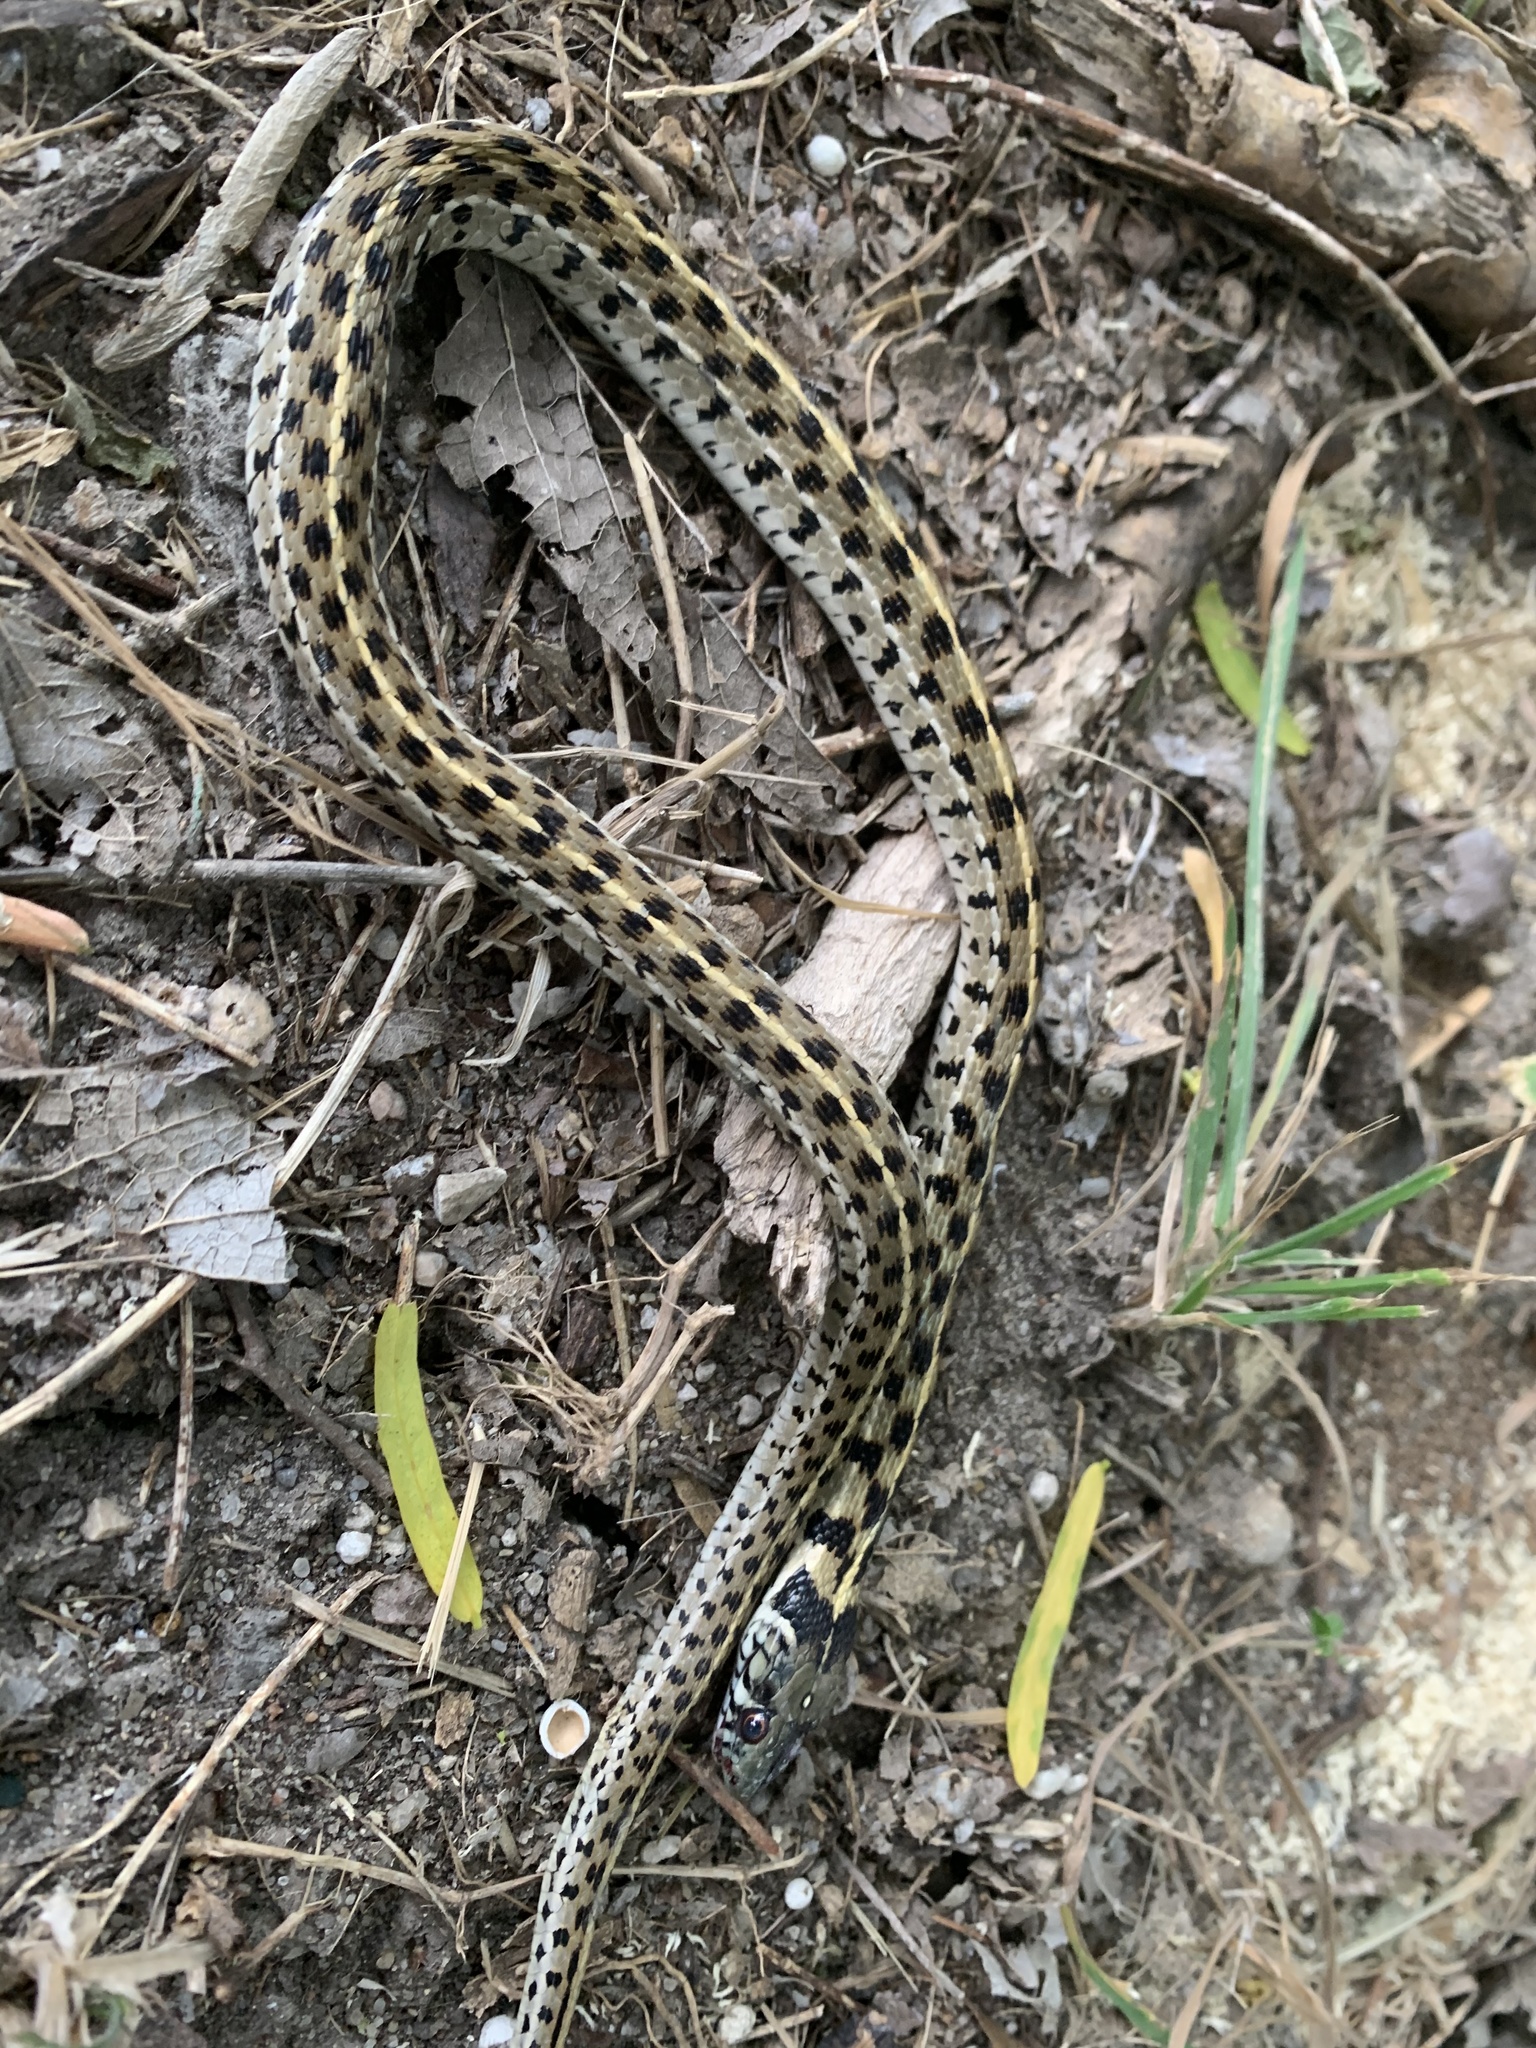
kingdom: Animalia
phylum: Chordata
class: Squamata
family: Colubridae
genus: Thamnophis
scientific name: Thamnophis marcianus
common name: Checkered garter snake
